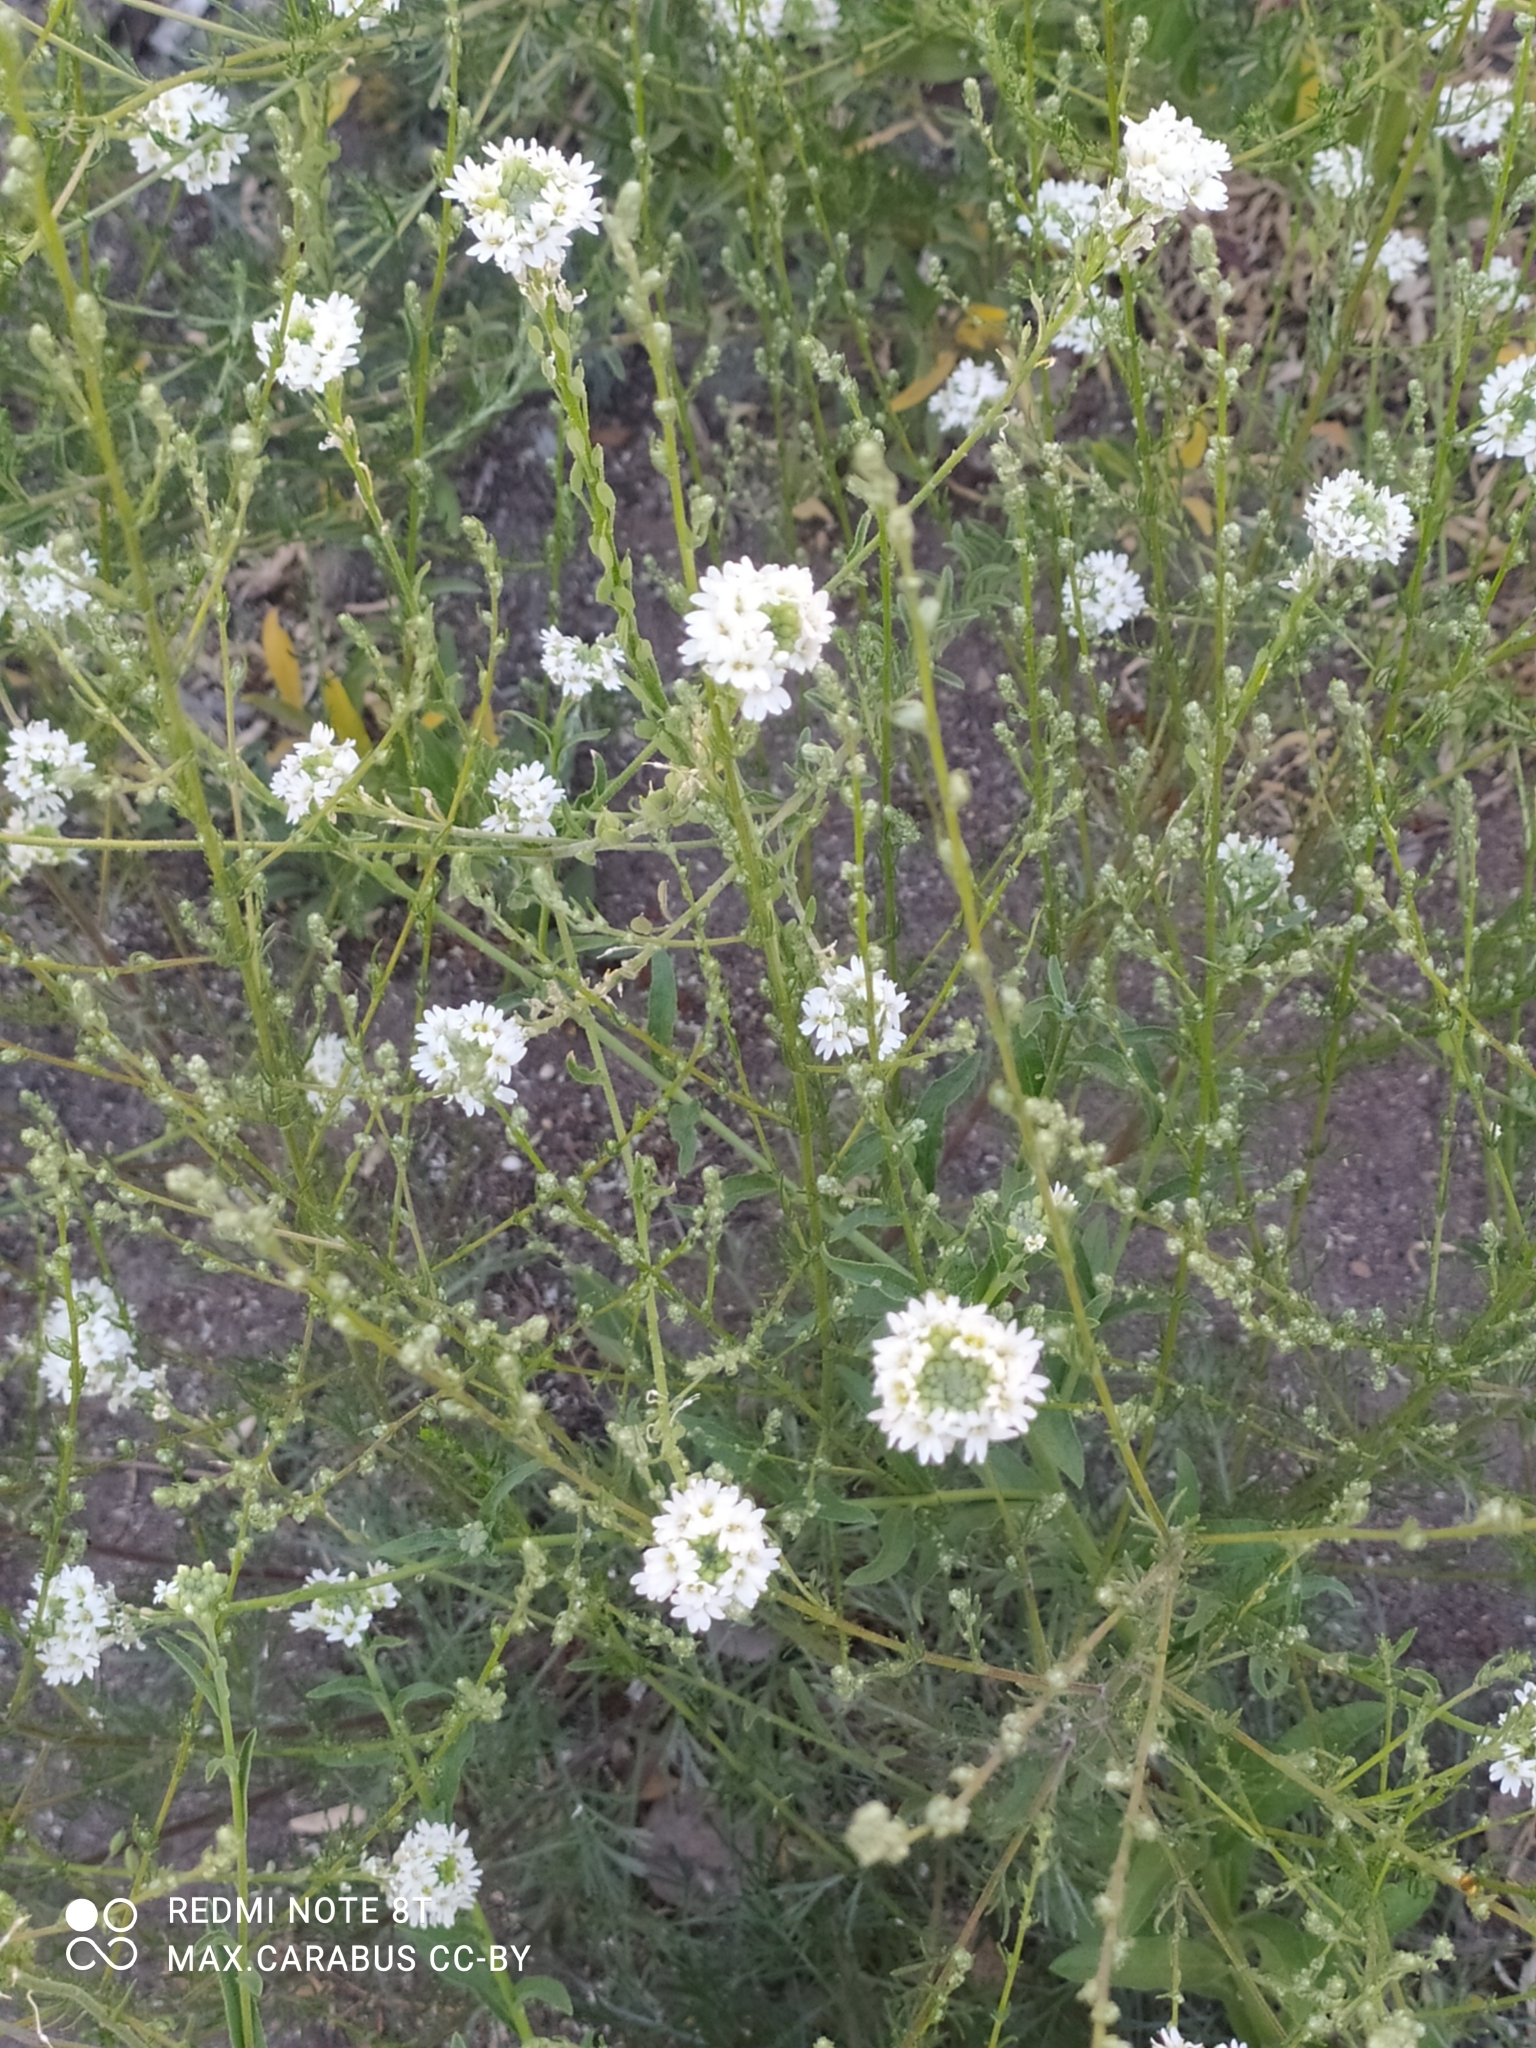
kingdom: Plantae
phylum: Tracheophyta
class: Magnoliopsida
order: Brassicales
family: Brassicaceae
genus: Berteroa
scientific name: Berteroa incana
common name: Hoary alison
